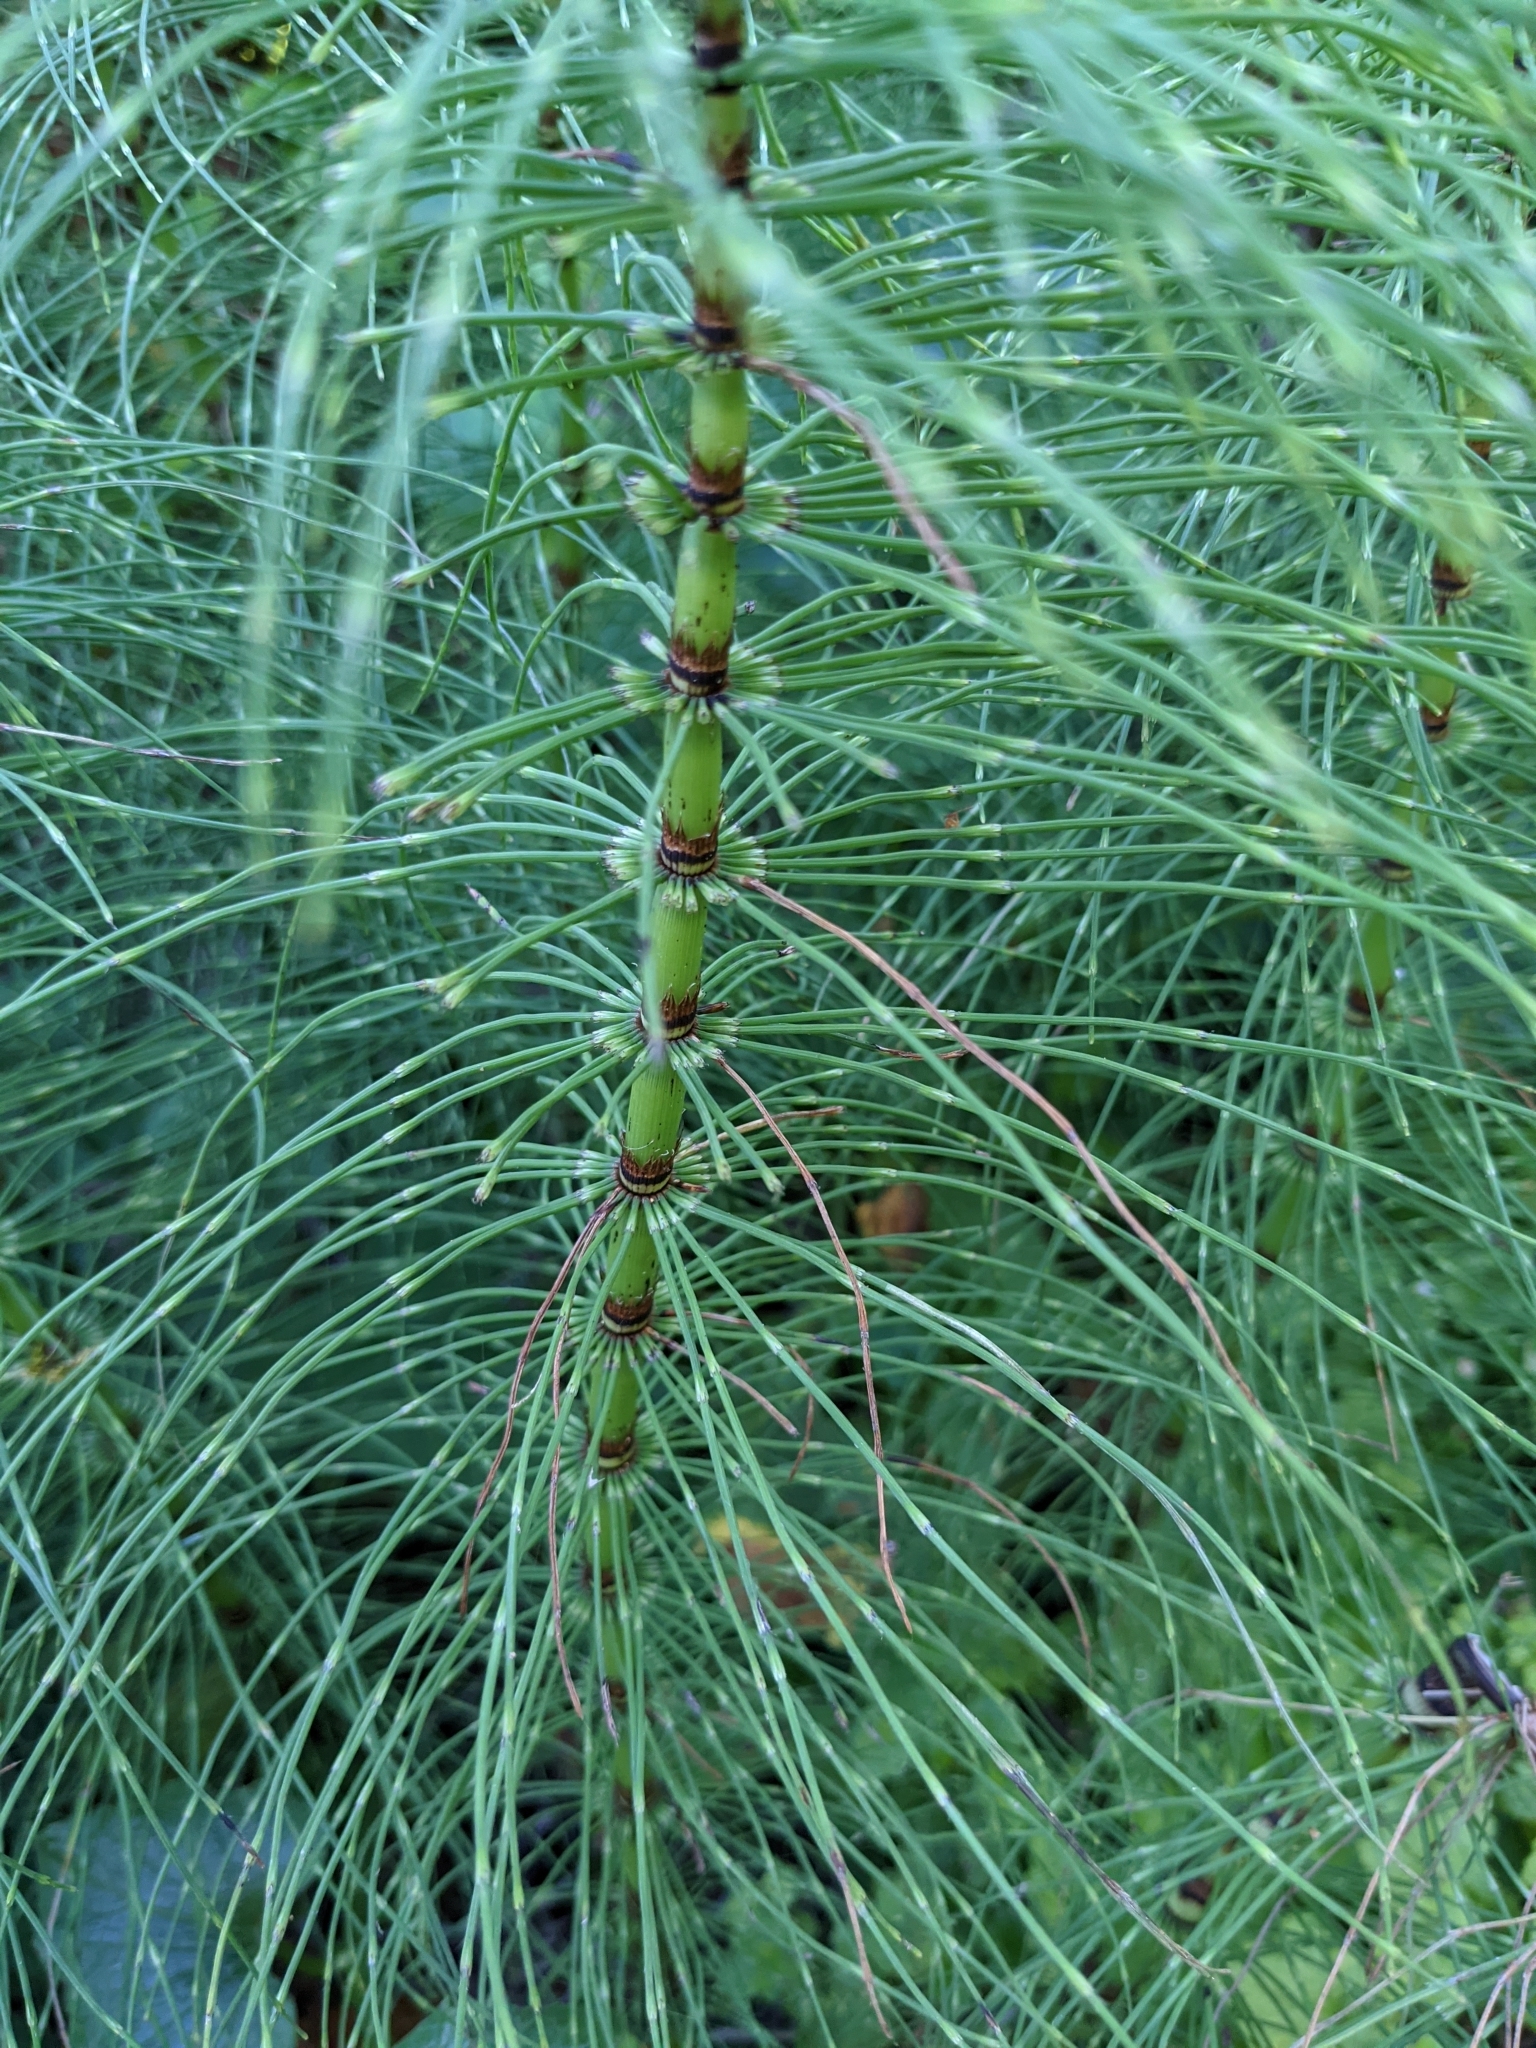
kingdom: Plantae
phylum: Tracheophyta
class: Polypodiopsida
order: Equisetales
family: Equisetaceae
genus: Equisetum
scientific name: Equisetum telmateia
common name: Great horsetail
